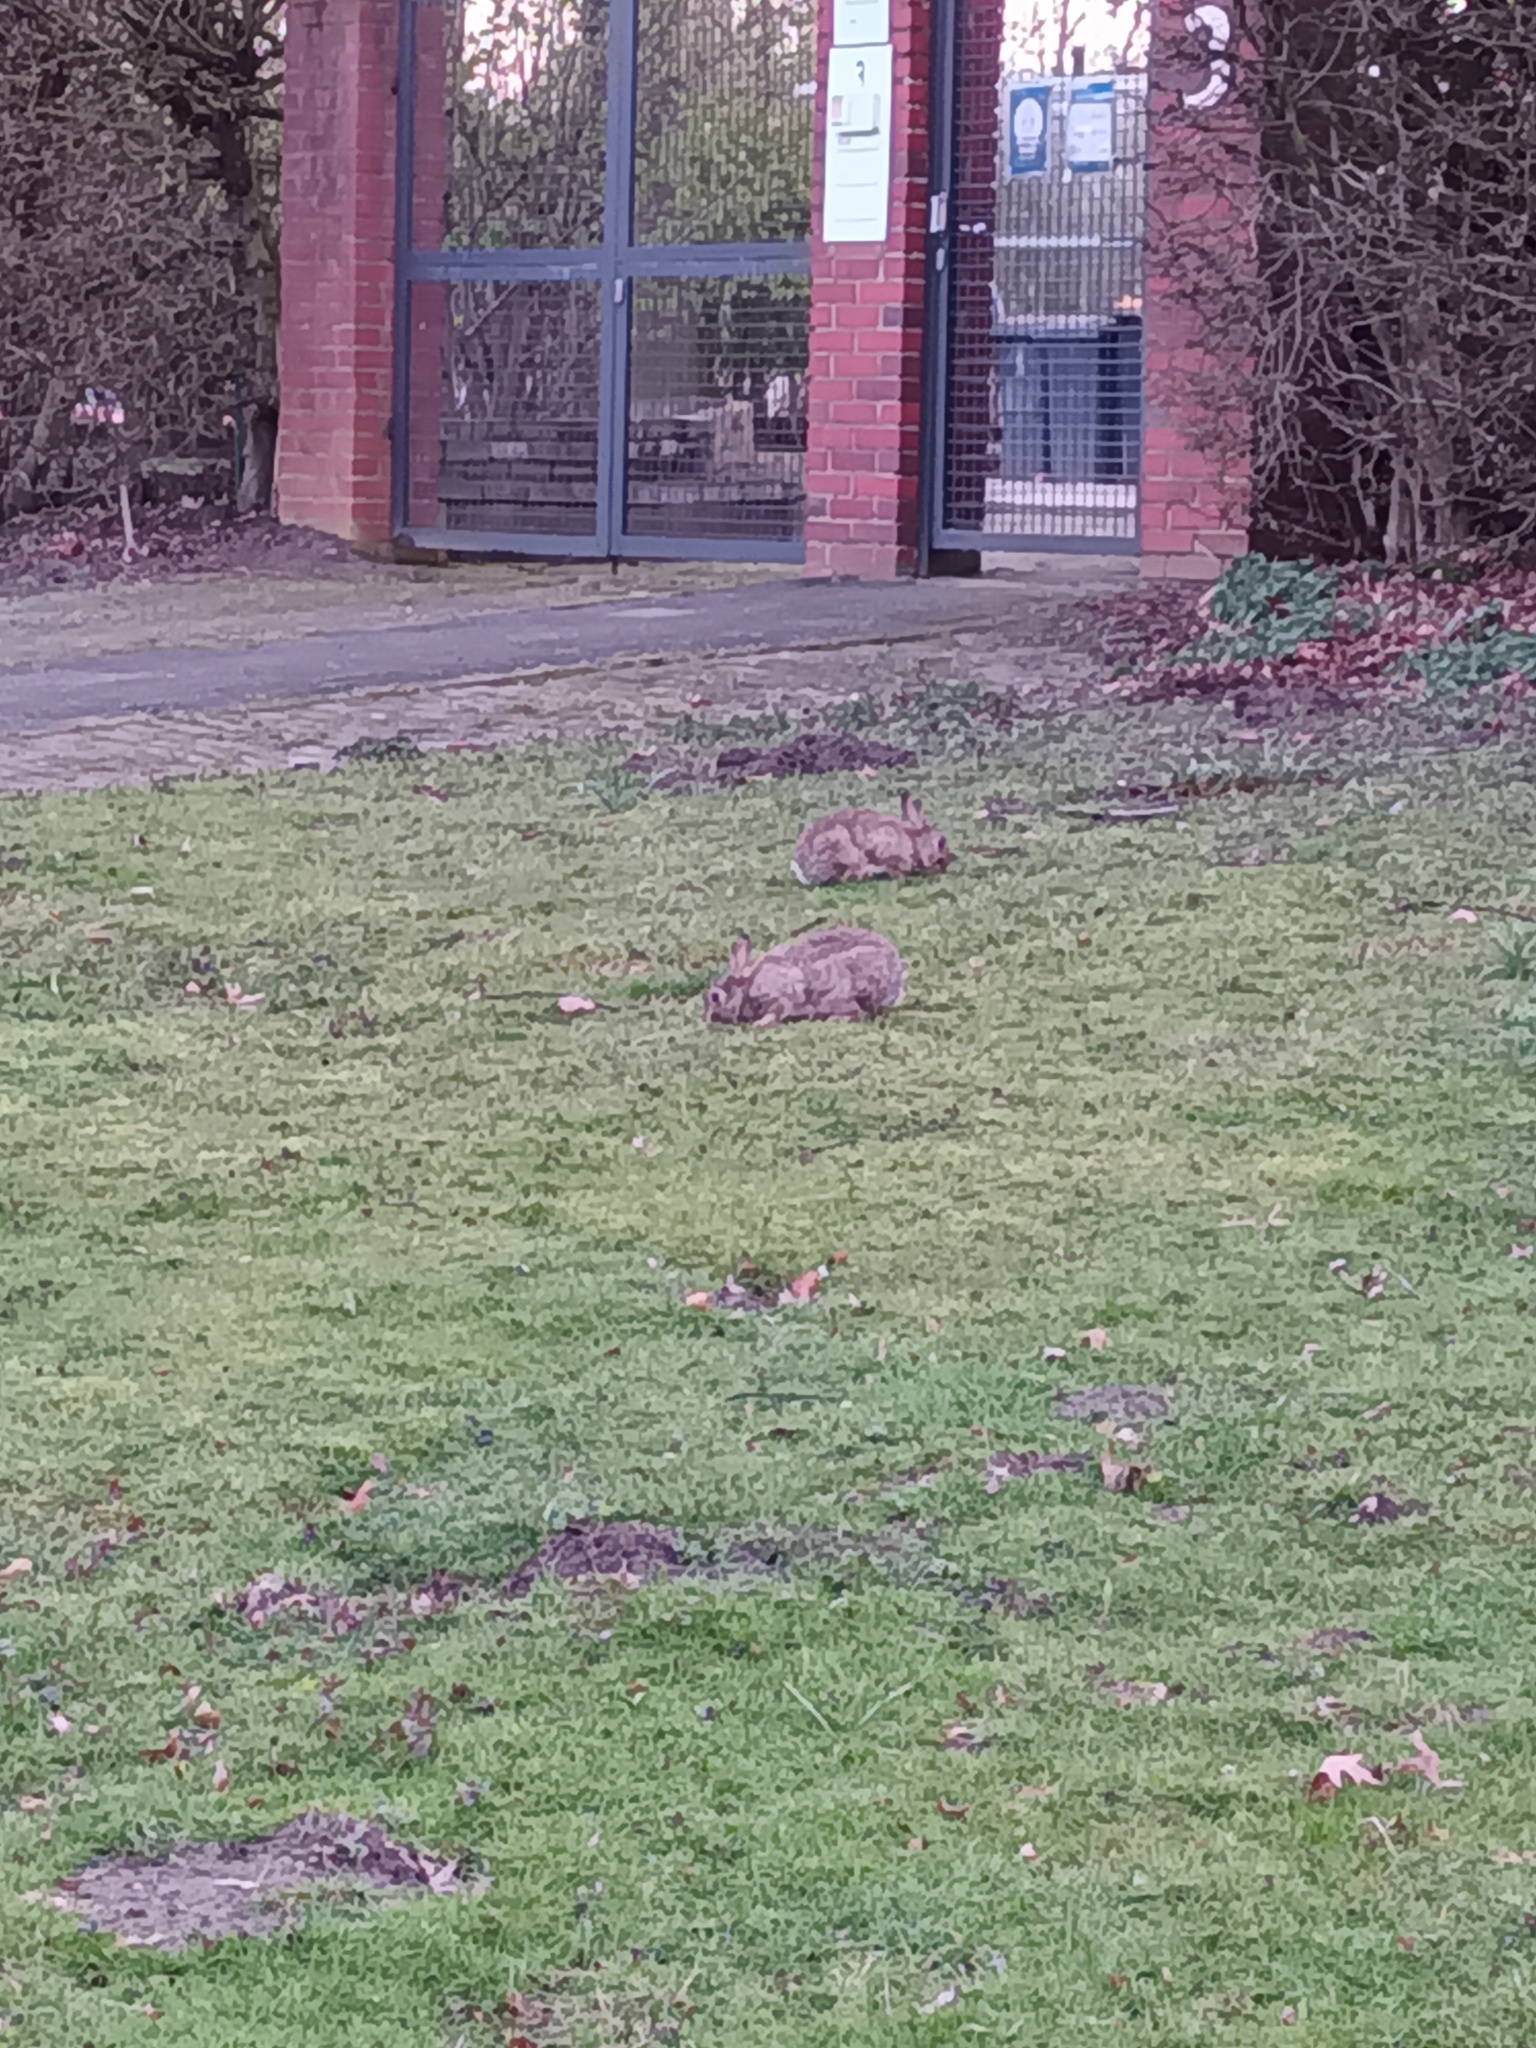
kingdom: Animalia
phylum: Chordata
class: Mammalia
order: Lagomorpha
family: Leporidae
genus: Oryctolagus
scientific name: Oryctolagus cuniculus
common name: European rabbit
